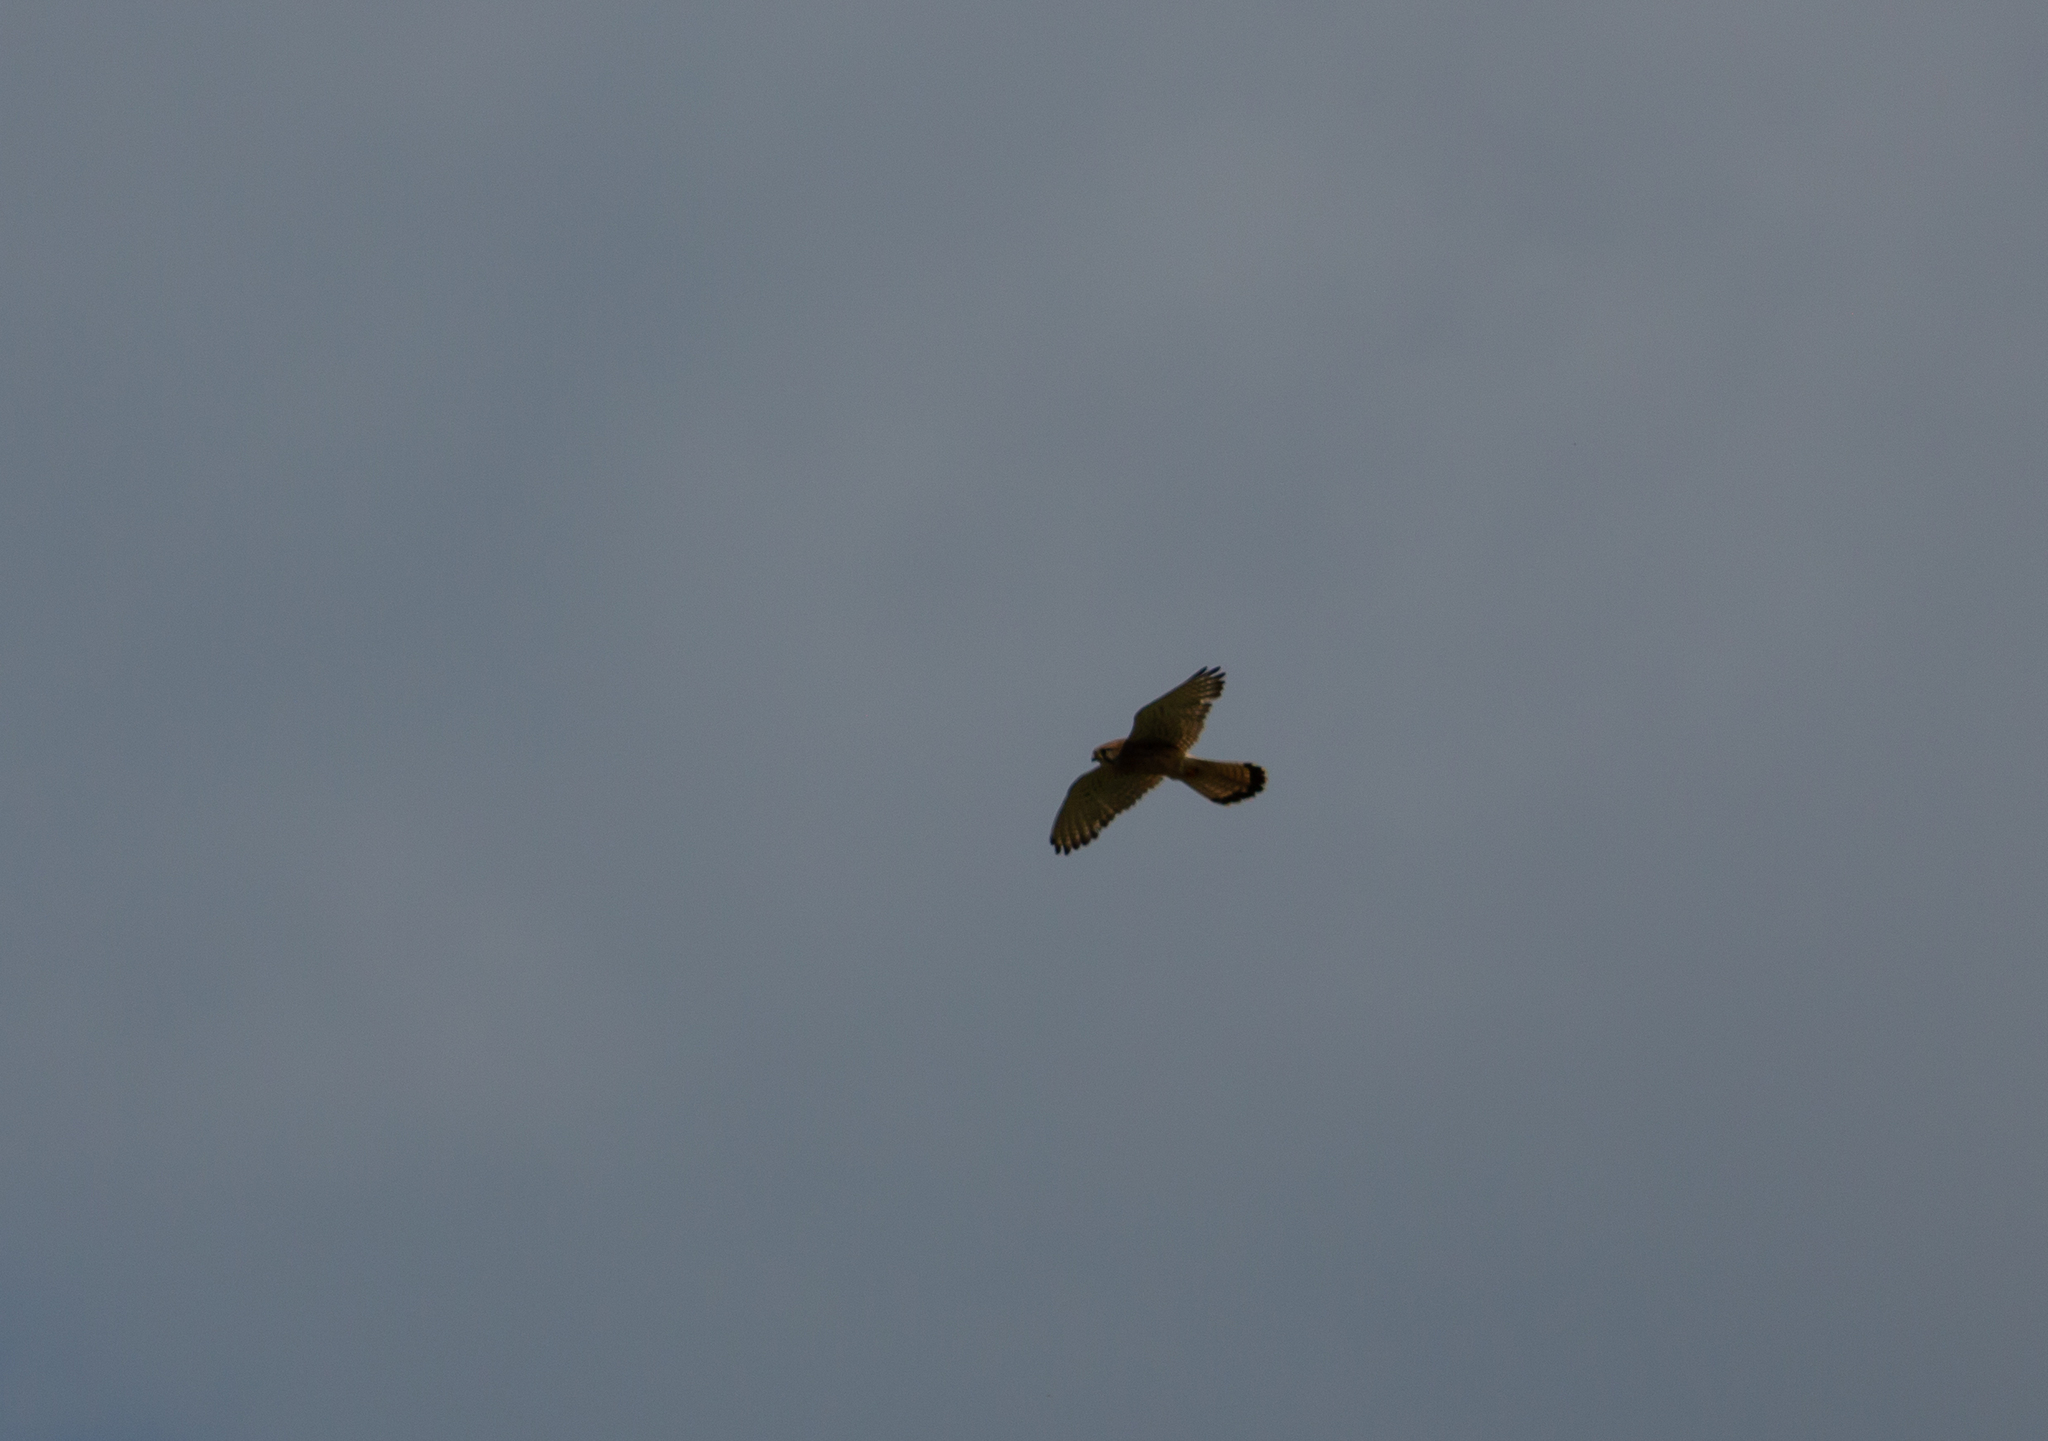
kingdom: Animalia
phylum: Chordata
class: Aves
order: Falconiformes
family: Falconidae
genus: Falco
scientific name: Falco tinnunculus
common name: Common kestrel
